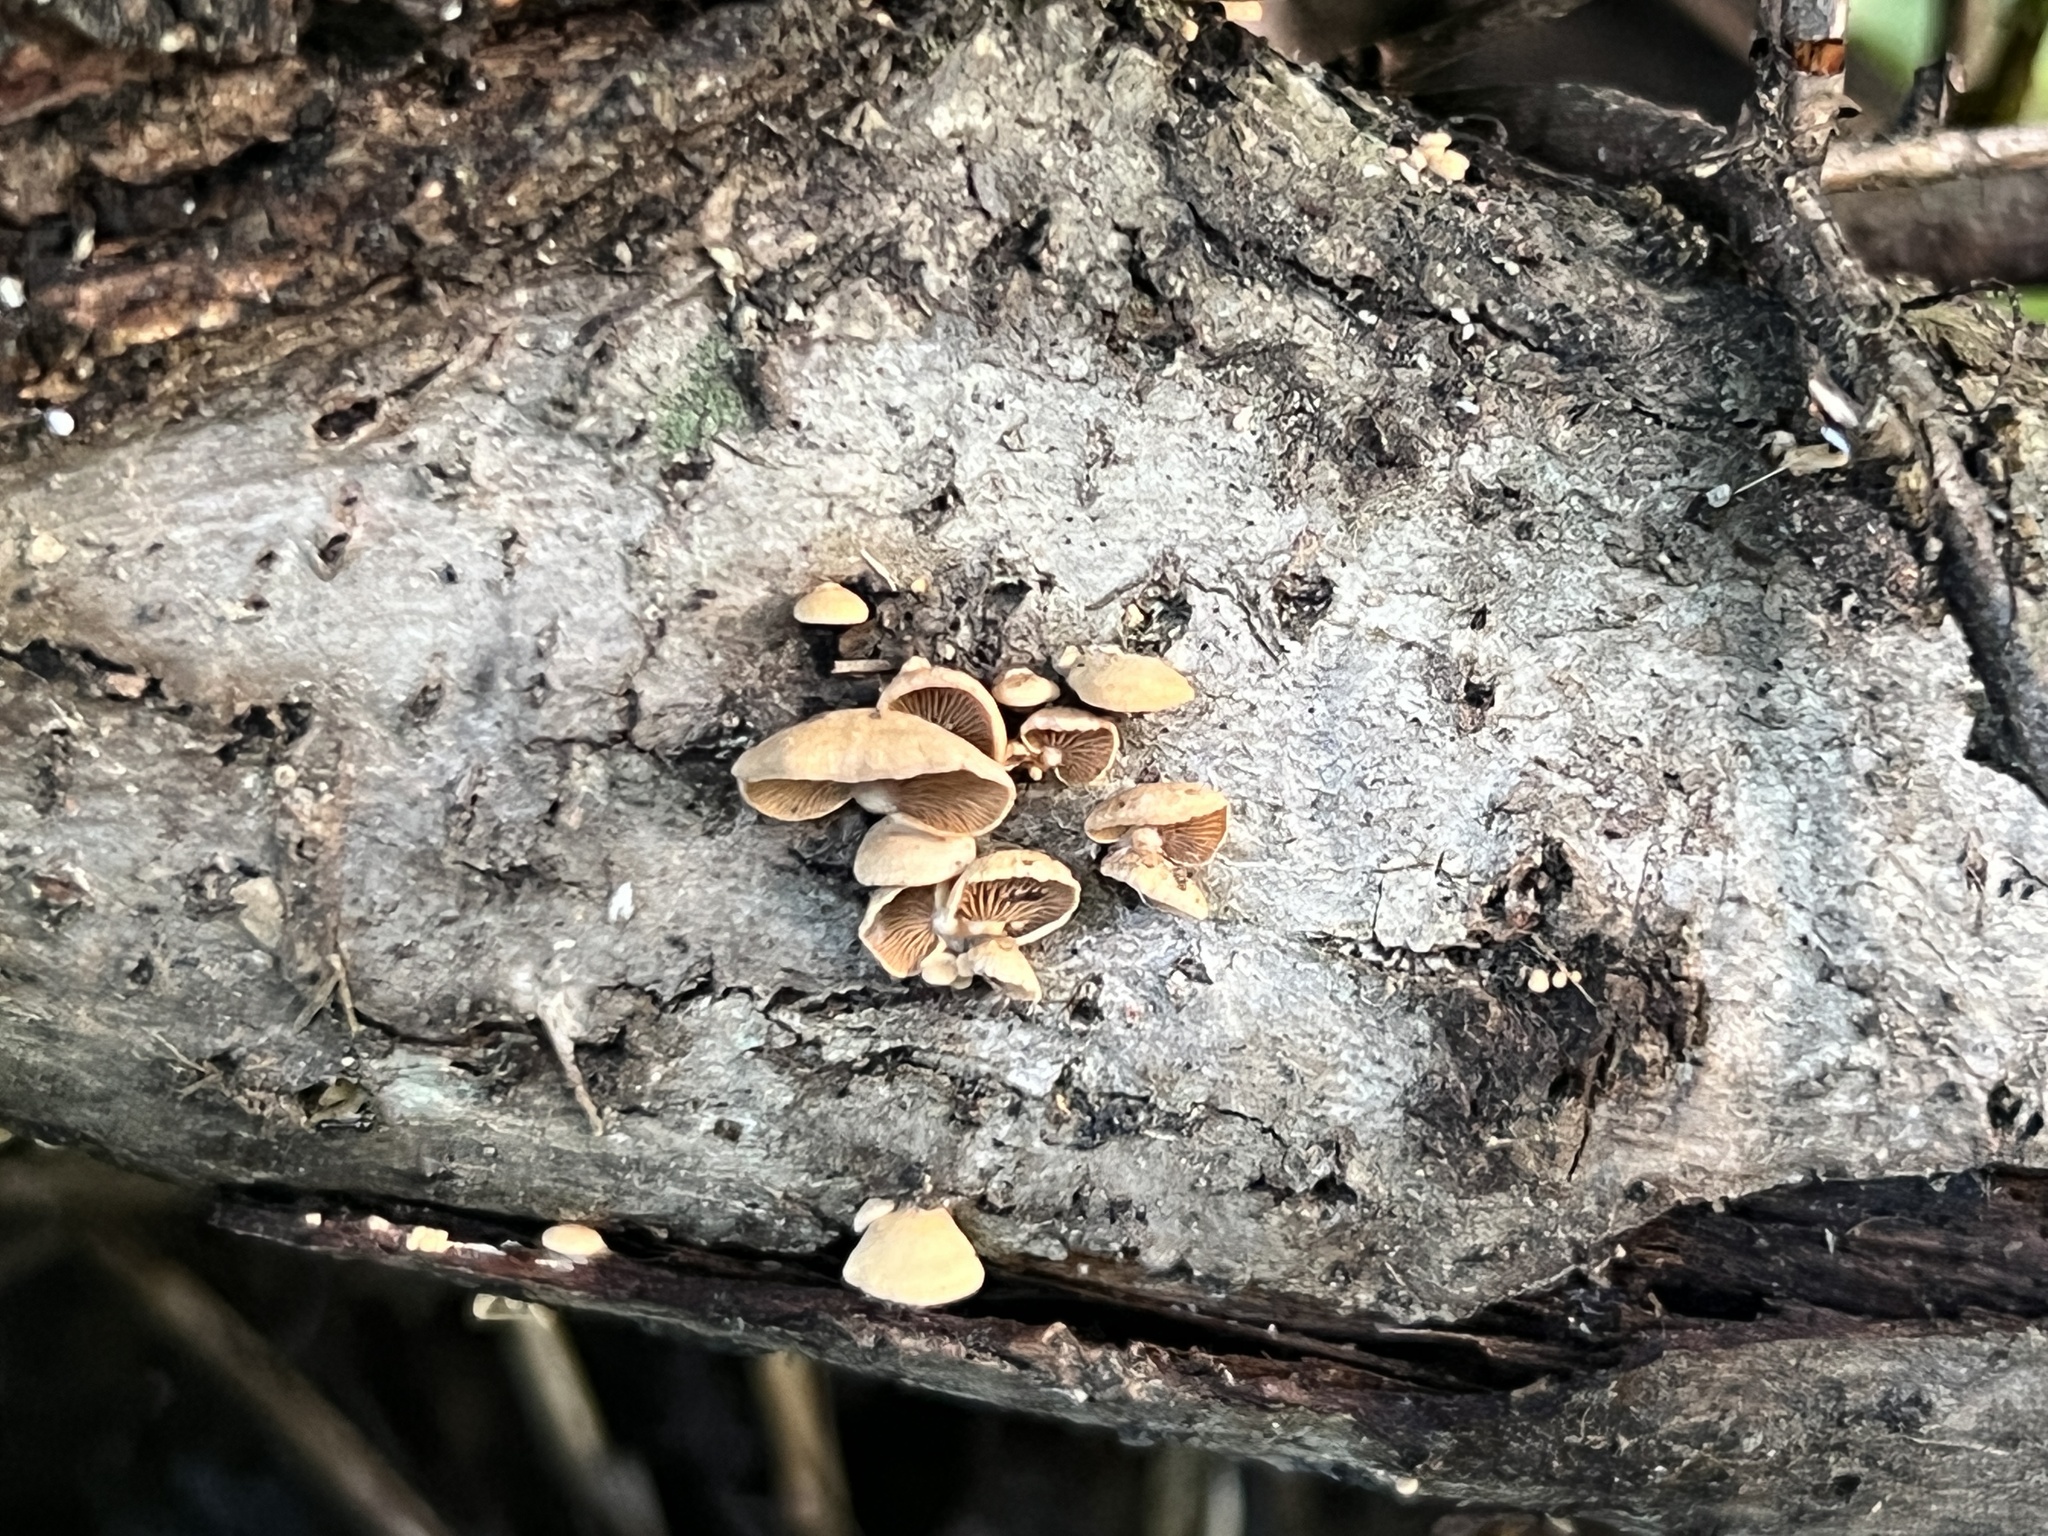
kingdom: Fungi
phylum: Basidiomycota
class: Agaricomycetes
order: Agaricales
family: Mycenaceae
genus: Panellus
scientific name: Panellus stipticus
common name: Bitter oysterling
